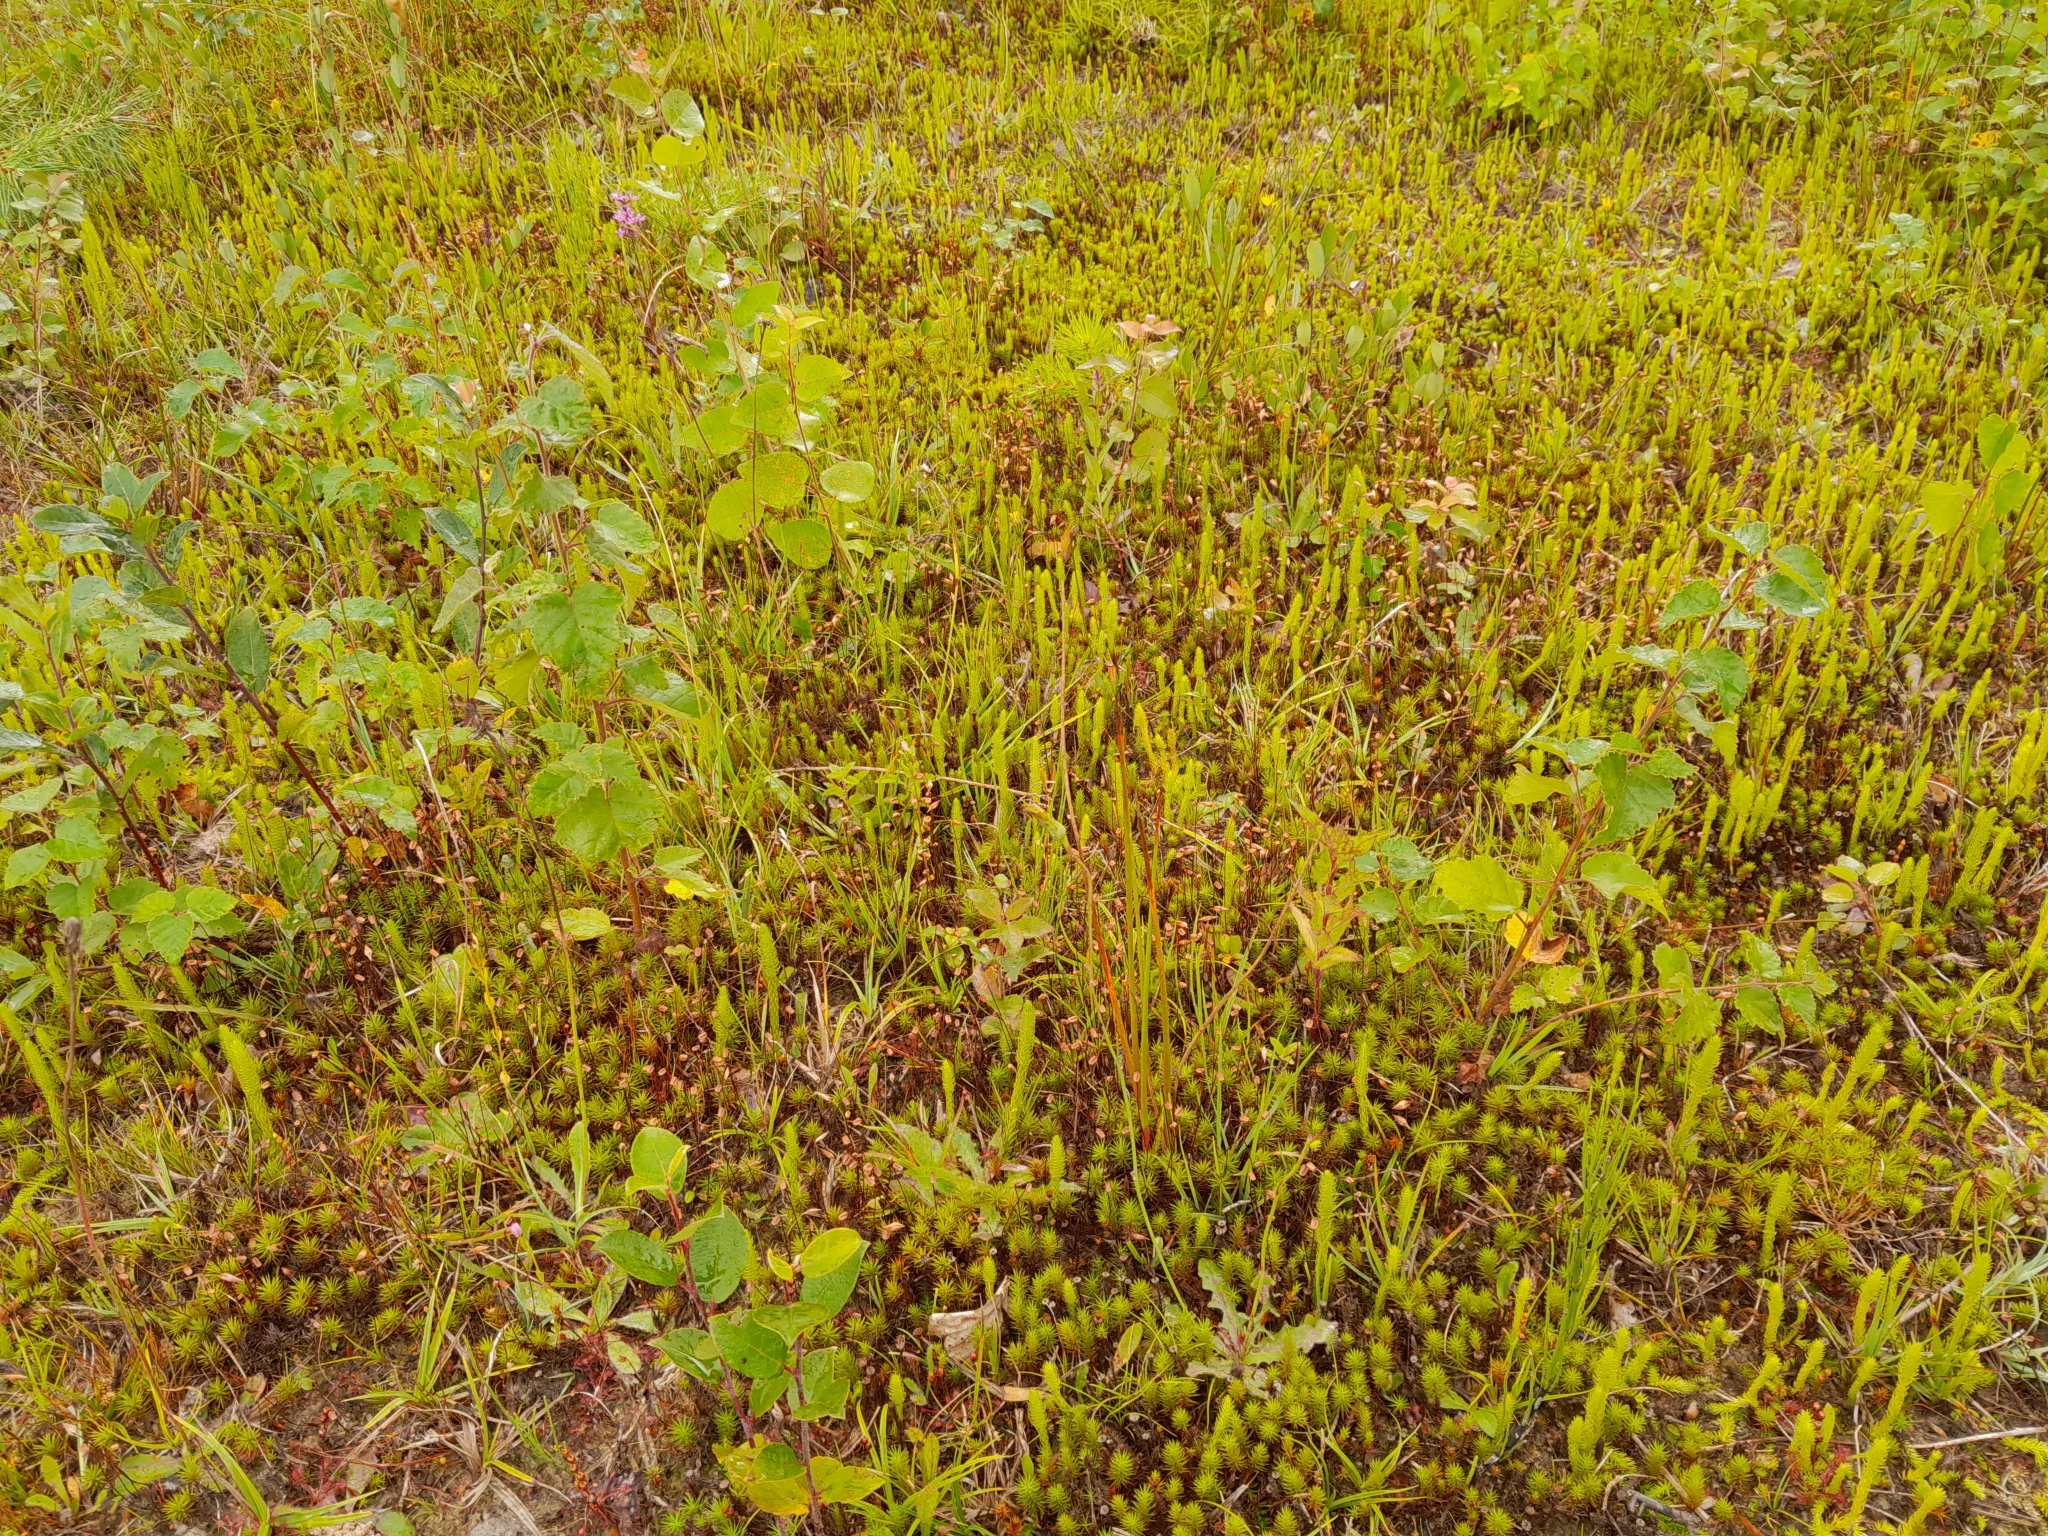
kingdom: Plantae
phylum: Tracheophyta
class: Lycopodiopsida
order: Lycopodiales
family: Lycopodiaceae
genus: Lycopodiella
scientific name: Lycopodiella inundata
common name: Marsh clubmoss
